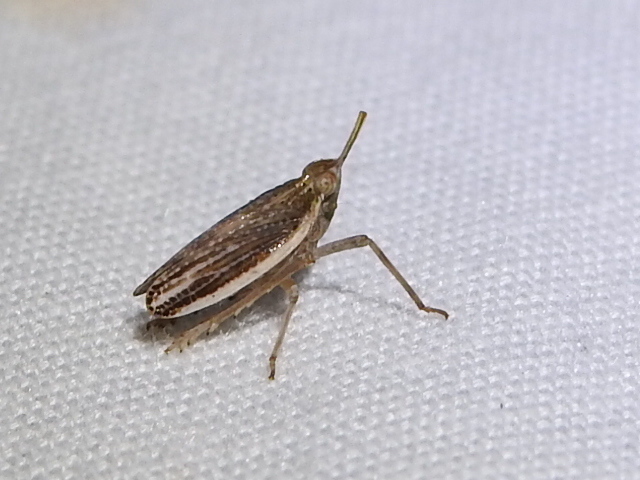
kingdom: Animalia
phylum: Arthropoda
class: Insecta
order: Hemiptera
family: Dictyopharidae
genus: Scolops
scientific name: Scolops angustatus
